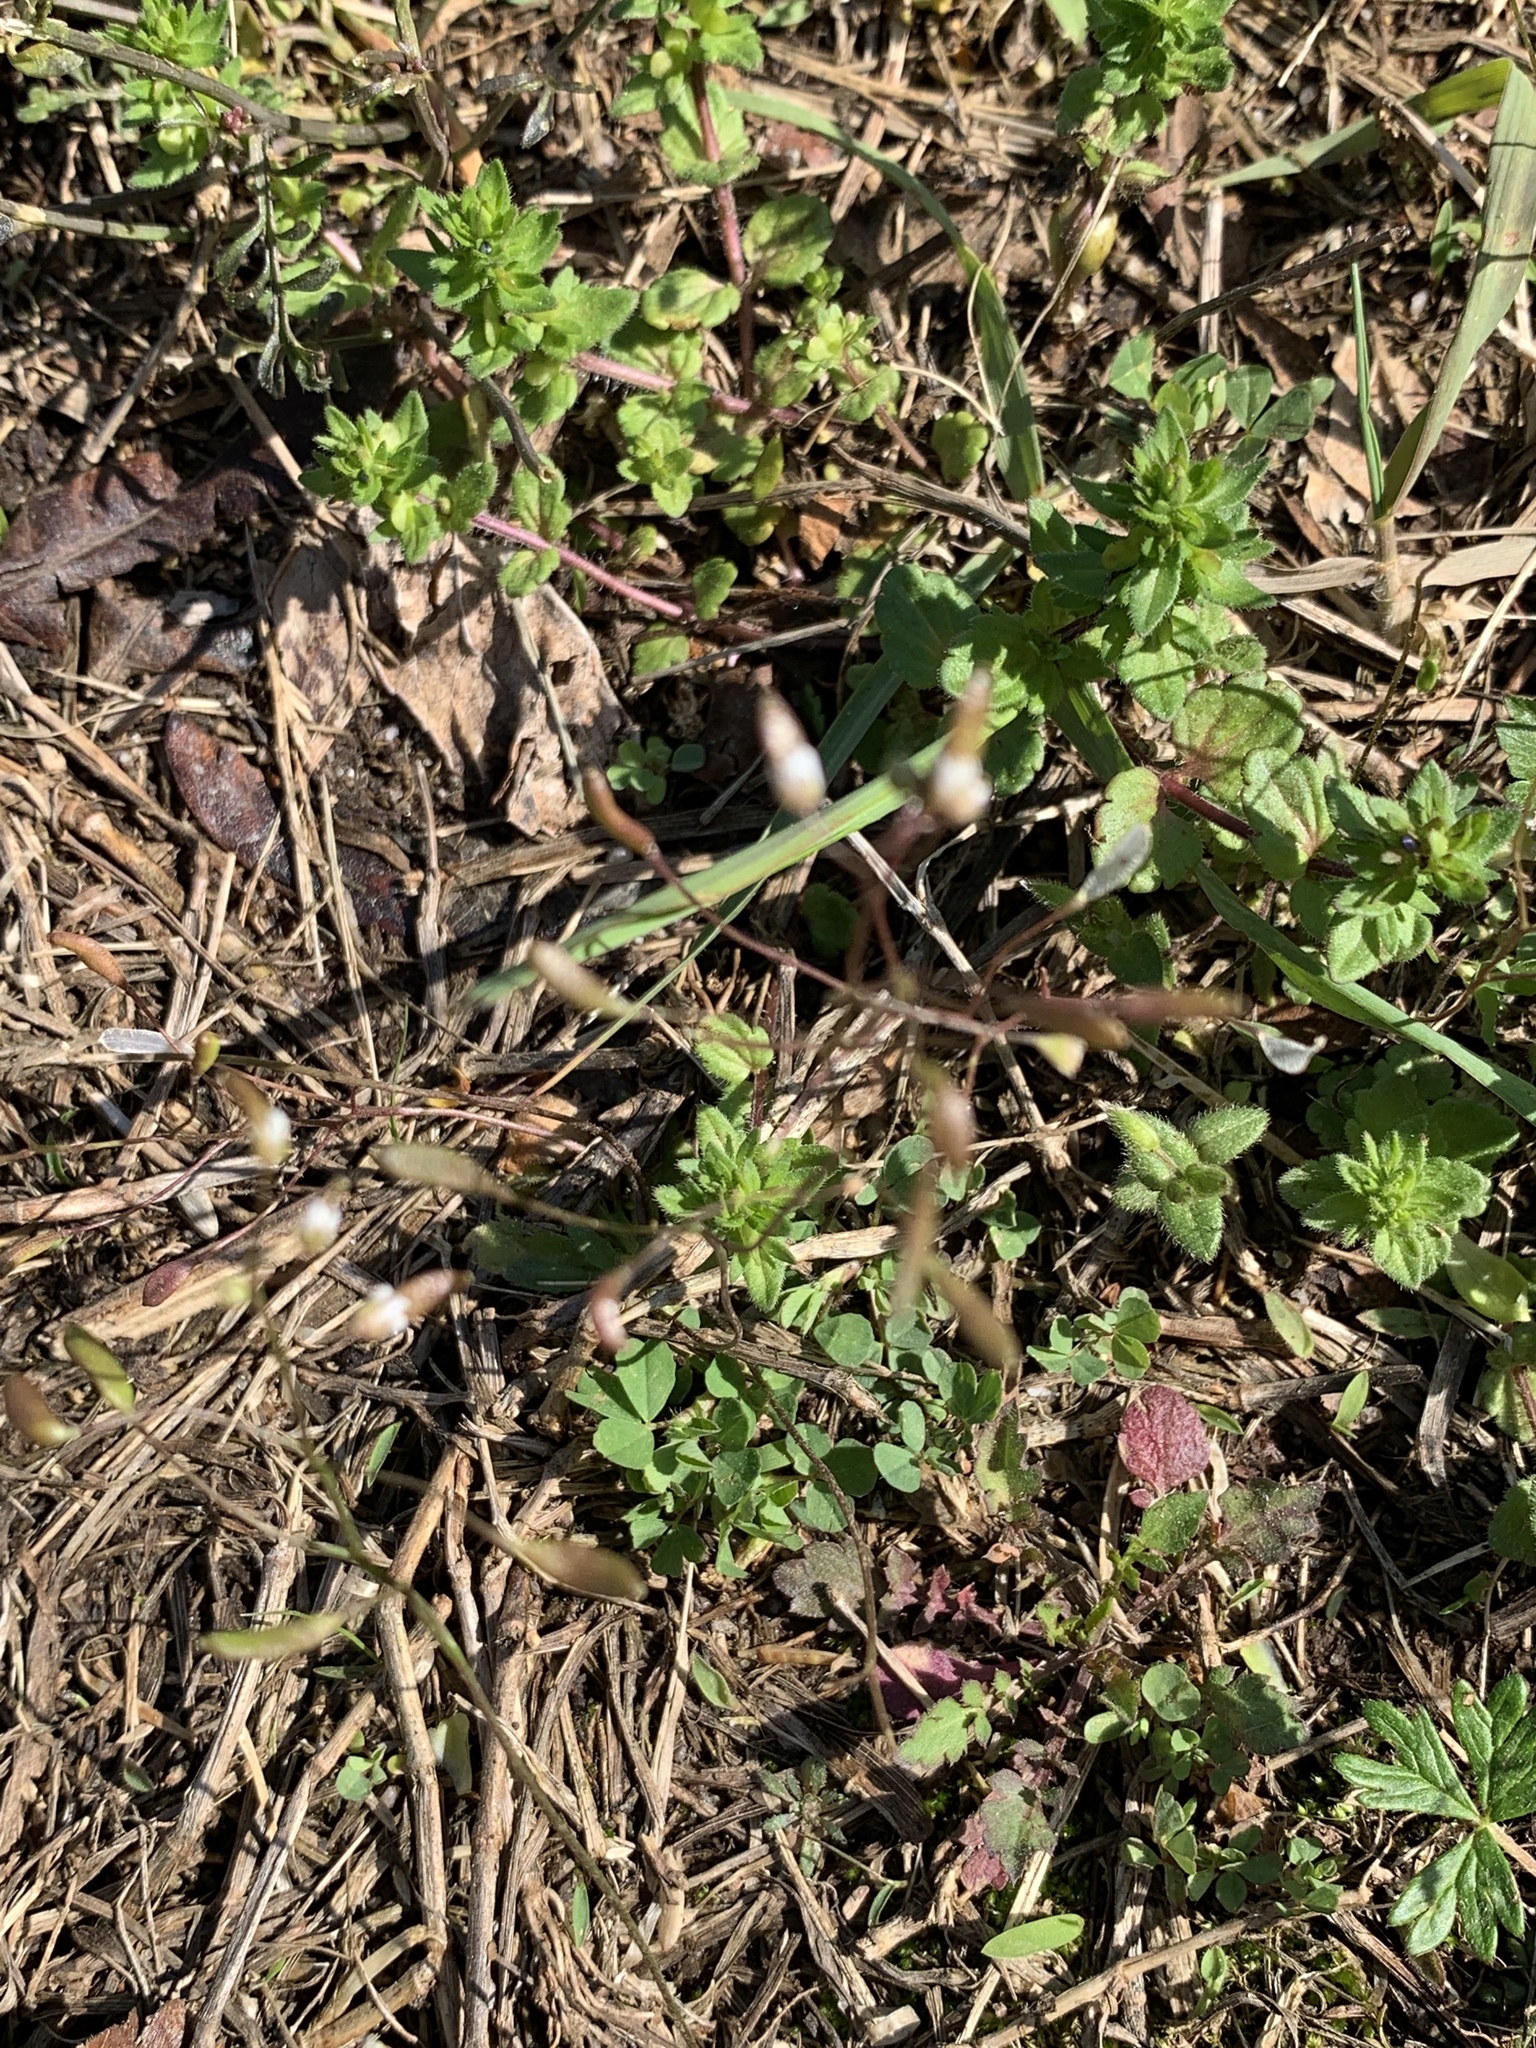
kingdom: Plantae
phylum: Tracheophyta
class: Magnoliopsida
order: Brassicales
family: Brassicaceae
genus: Draba
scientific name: Draba verna
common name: Spring draba
